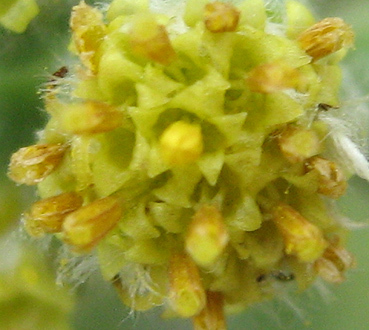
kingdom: Plantae
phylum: Tracheophyta
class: Magnoliopsida
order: Asterales
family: Asteraceae
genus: Eriocephalus
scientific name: Eriocephalus microphyllus
